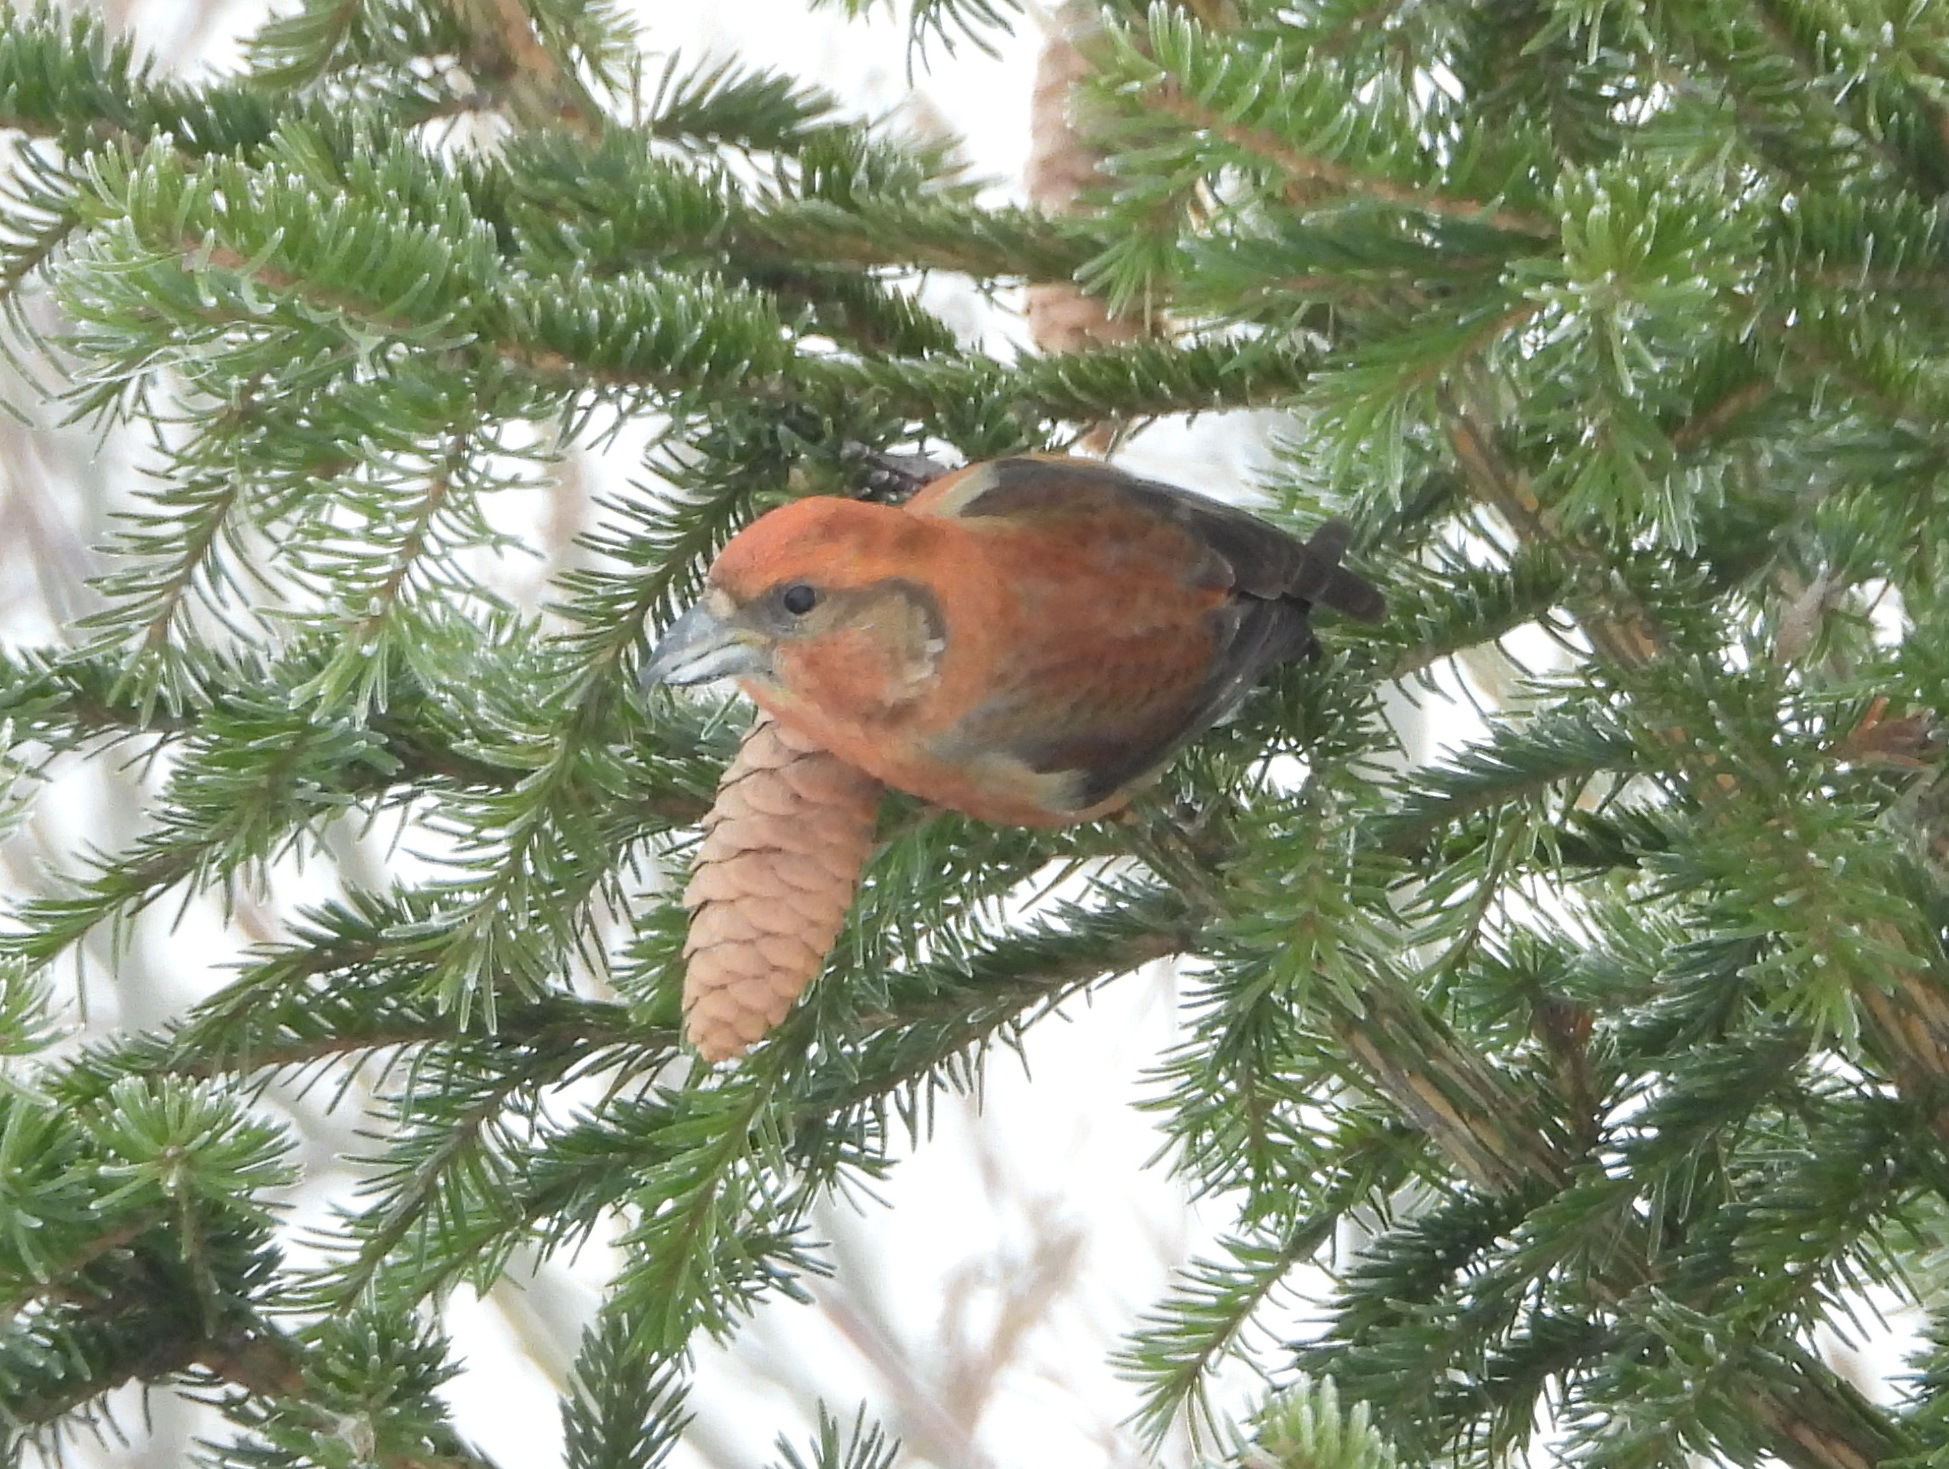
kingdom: Animalia
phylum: Chordata
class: Aves
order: Passeriformes
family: Fringillidae
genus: Loxia
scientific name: Loxia curvirostra
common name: Red crossbill
